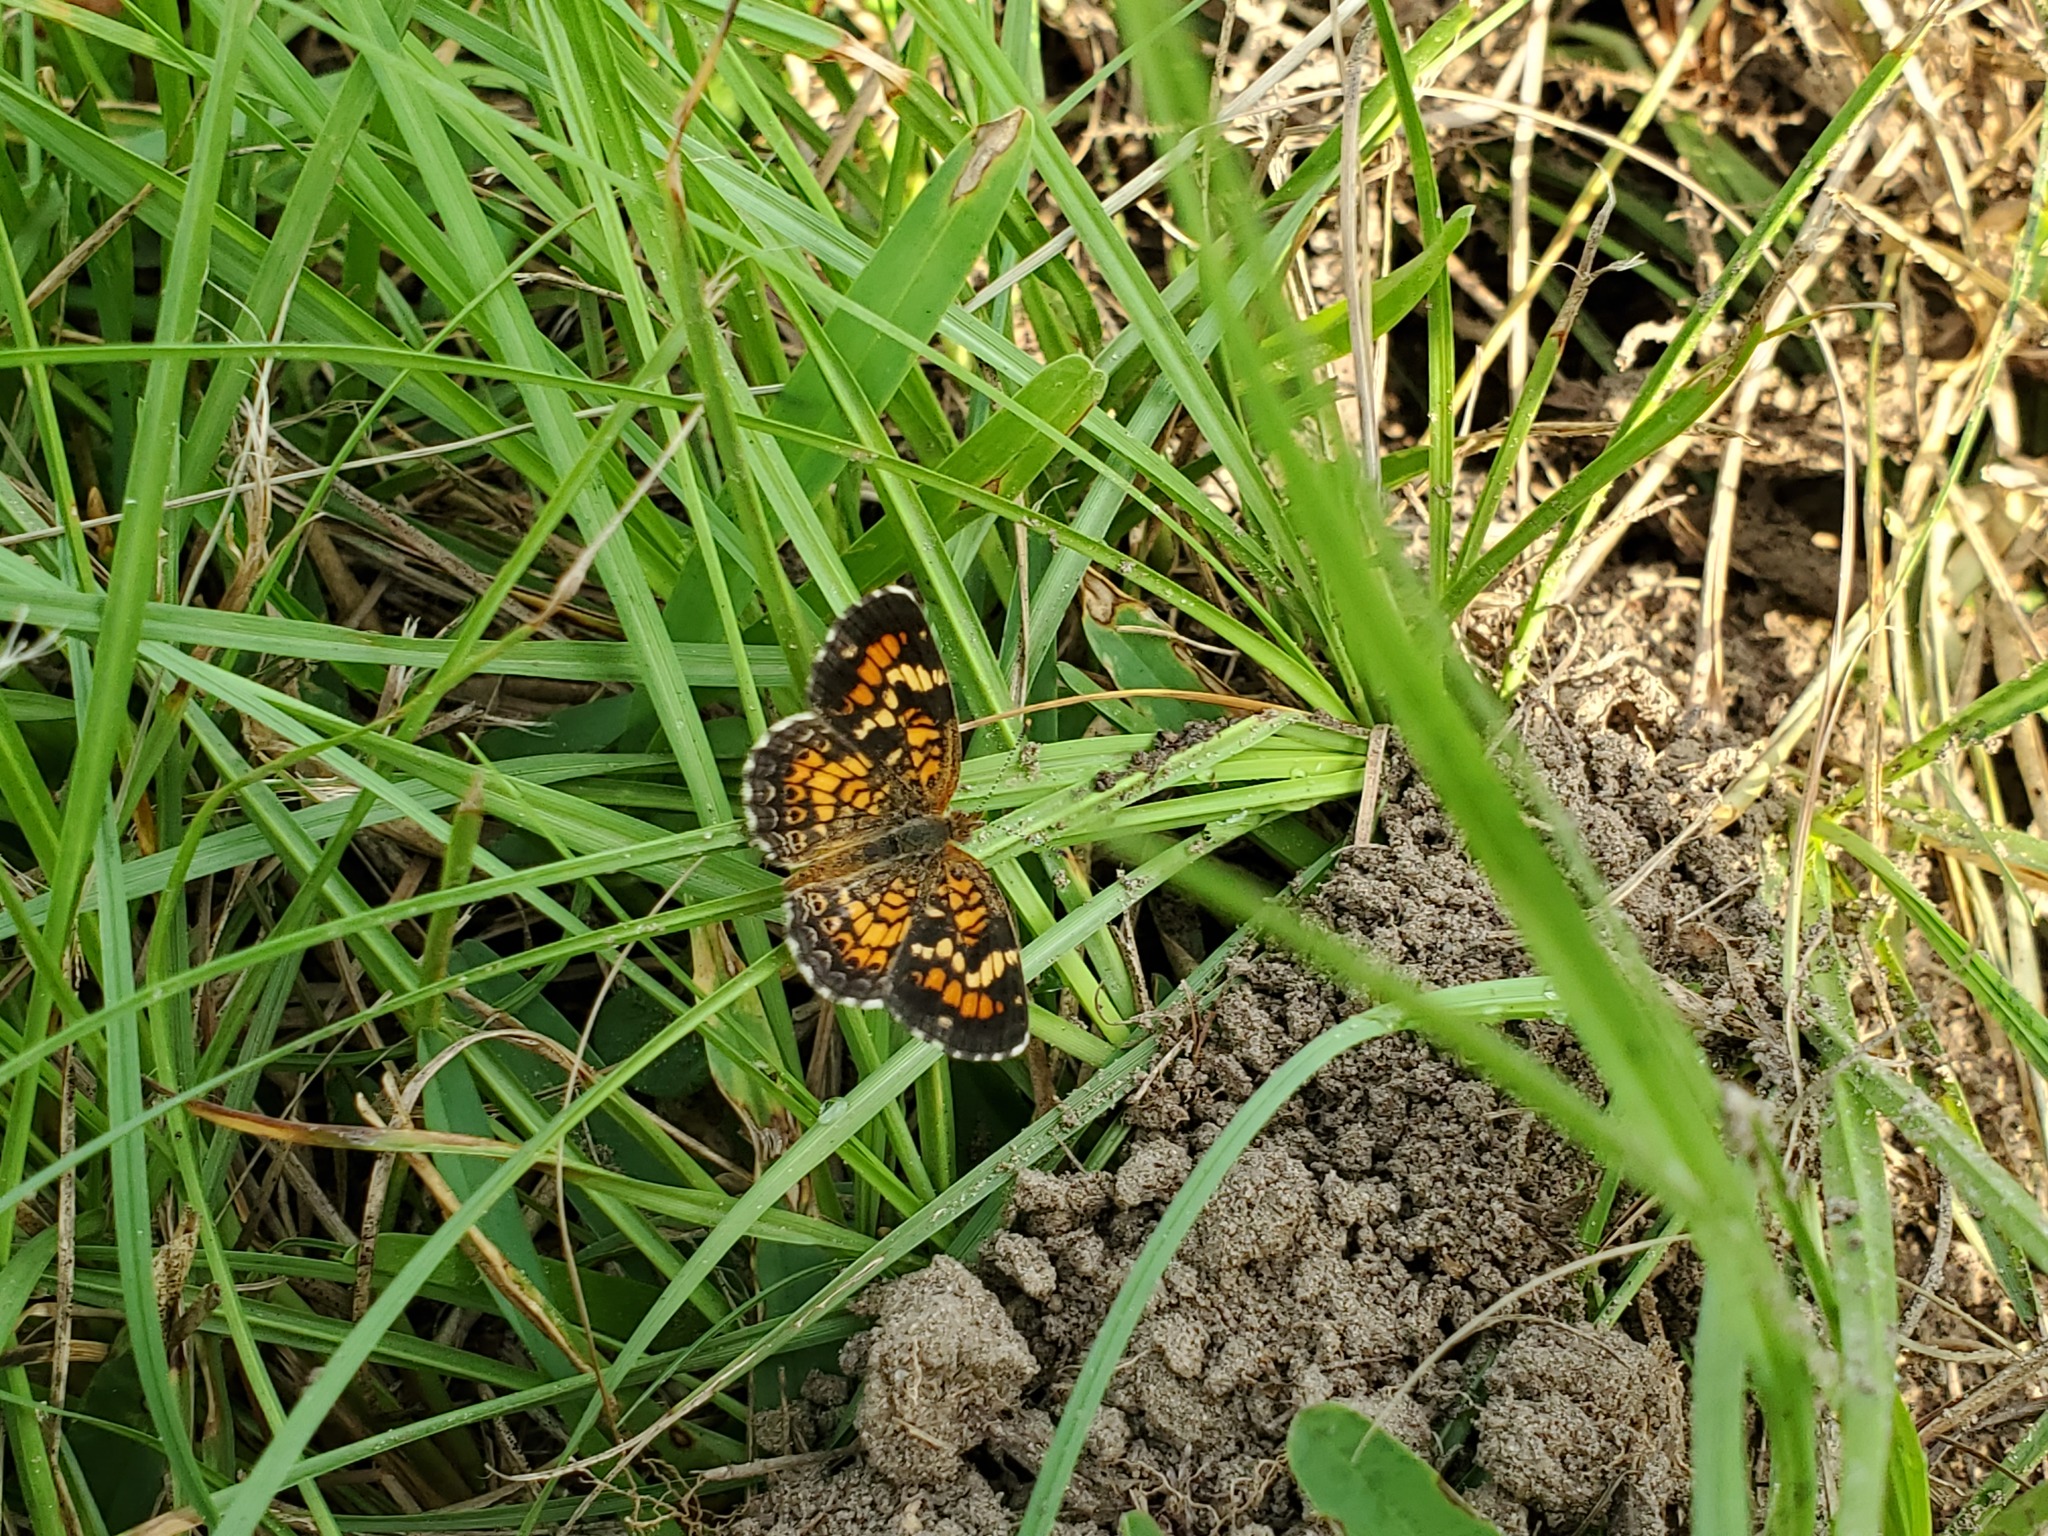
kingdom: Animalia
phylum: Arthropoda
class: Insecta
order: Lepidoptera
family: Nymphalidae
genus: Phyciodes
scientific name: Phyciodes phaon
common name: Phaon crescent
